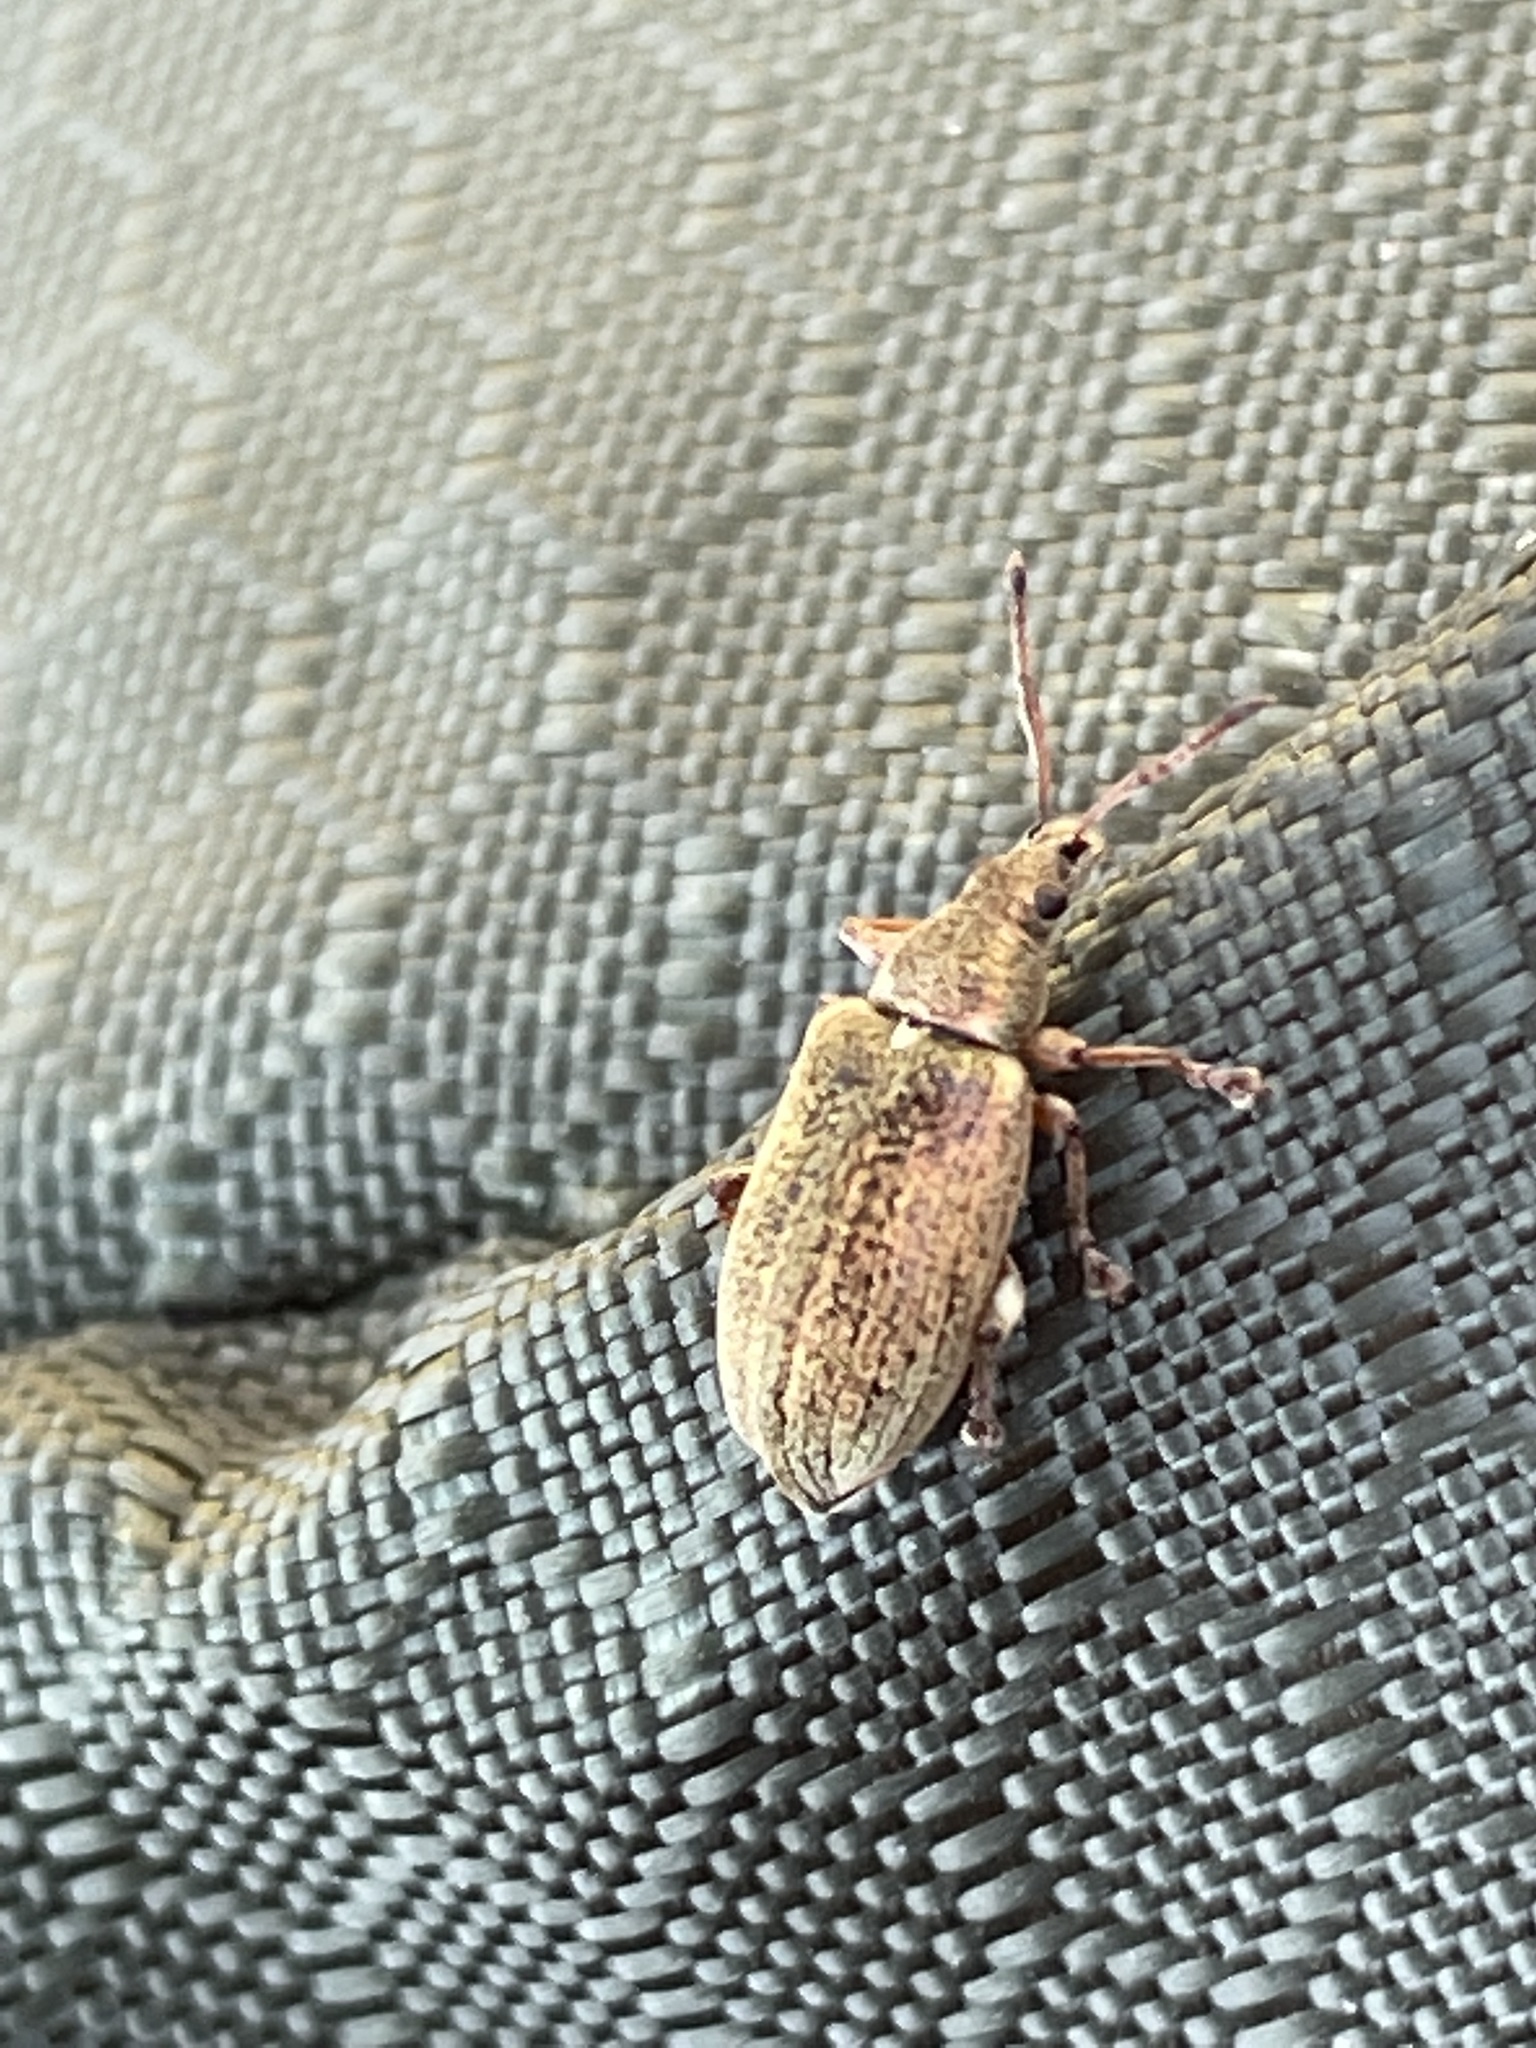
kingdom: Animalia
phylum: Arthropoda
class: Insecta
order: Coleoptera
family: Curculionidae
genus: Phyllobius
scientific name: Phyllobius pyri
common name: Common leaf weevil
